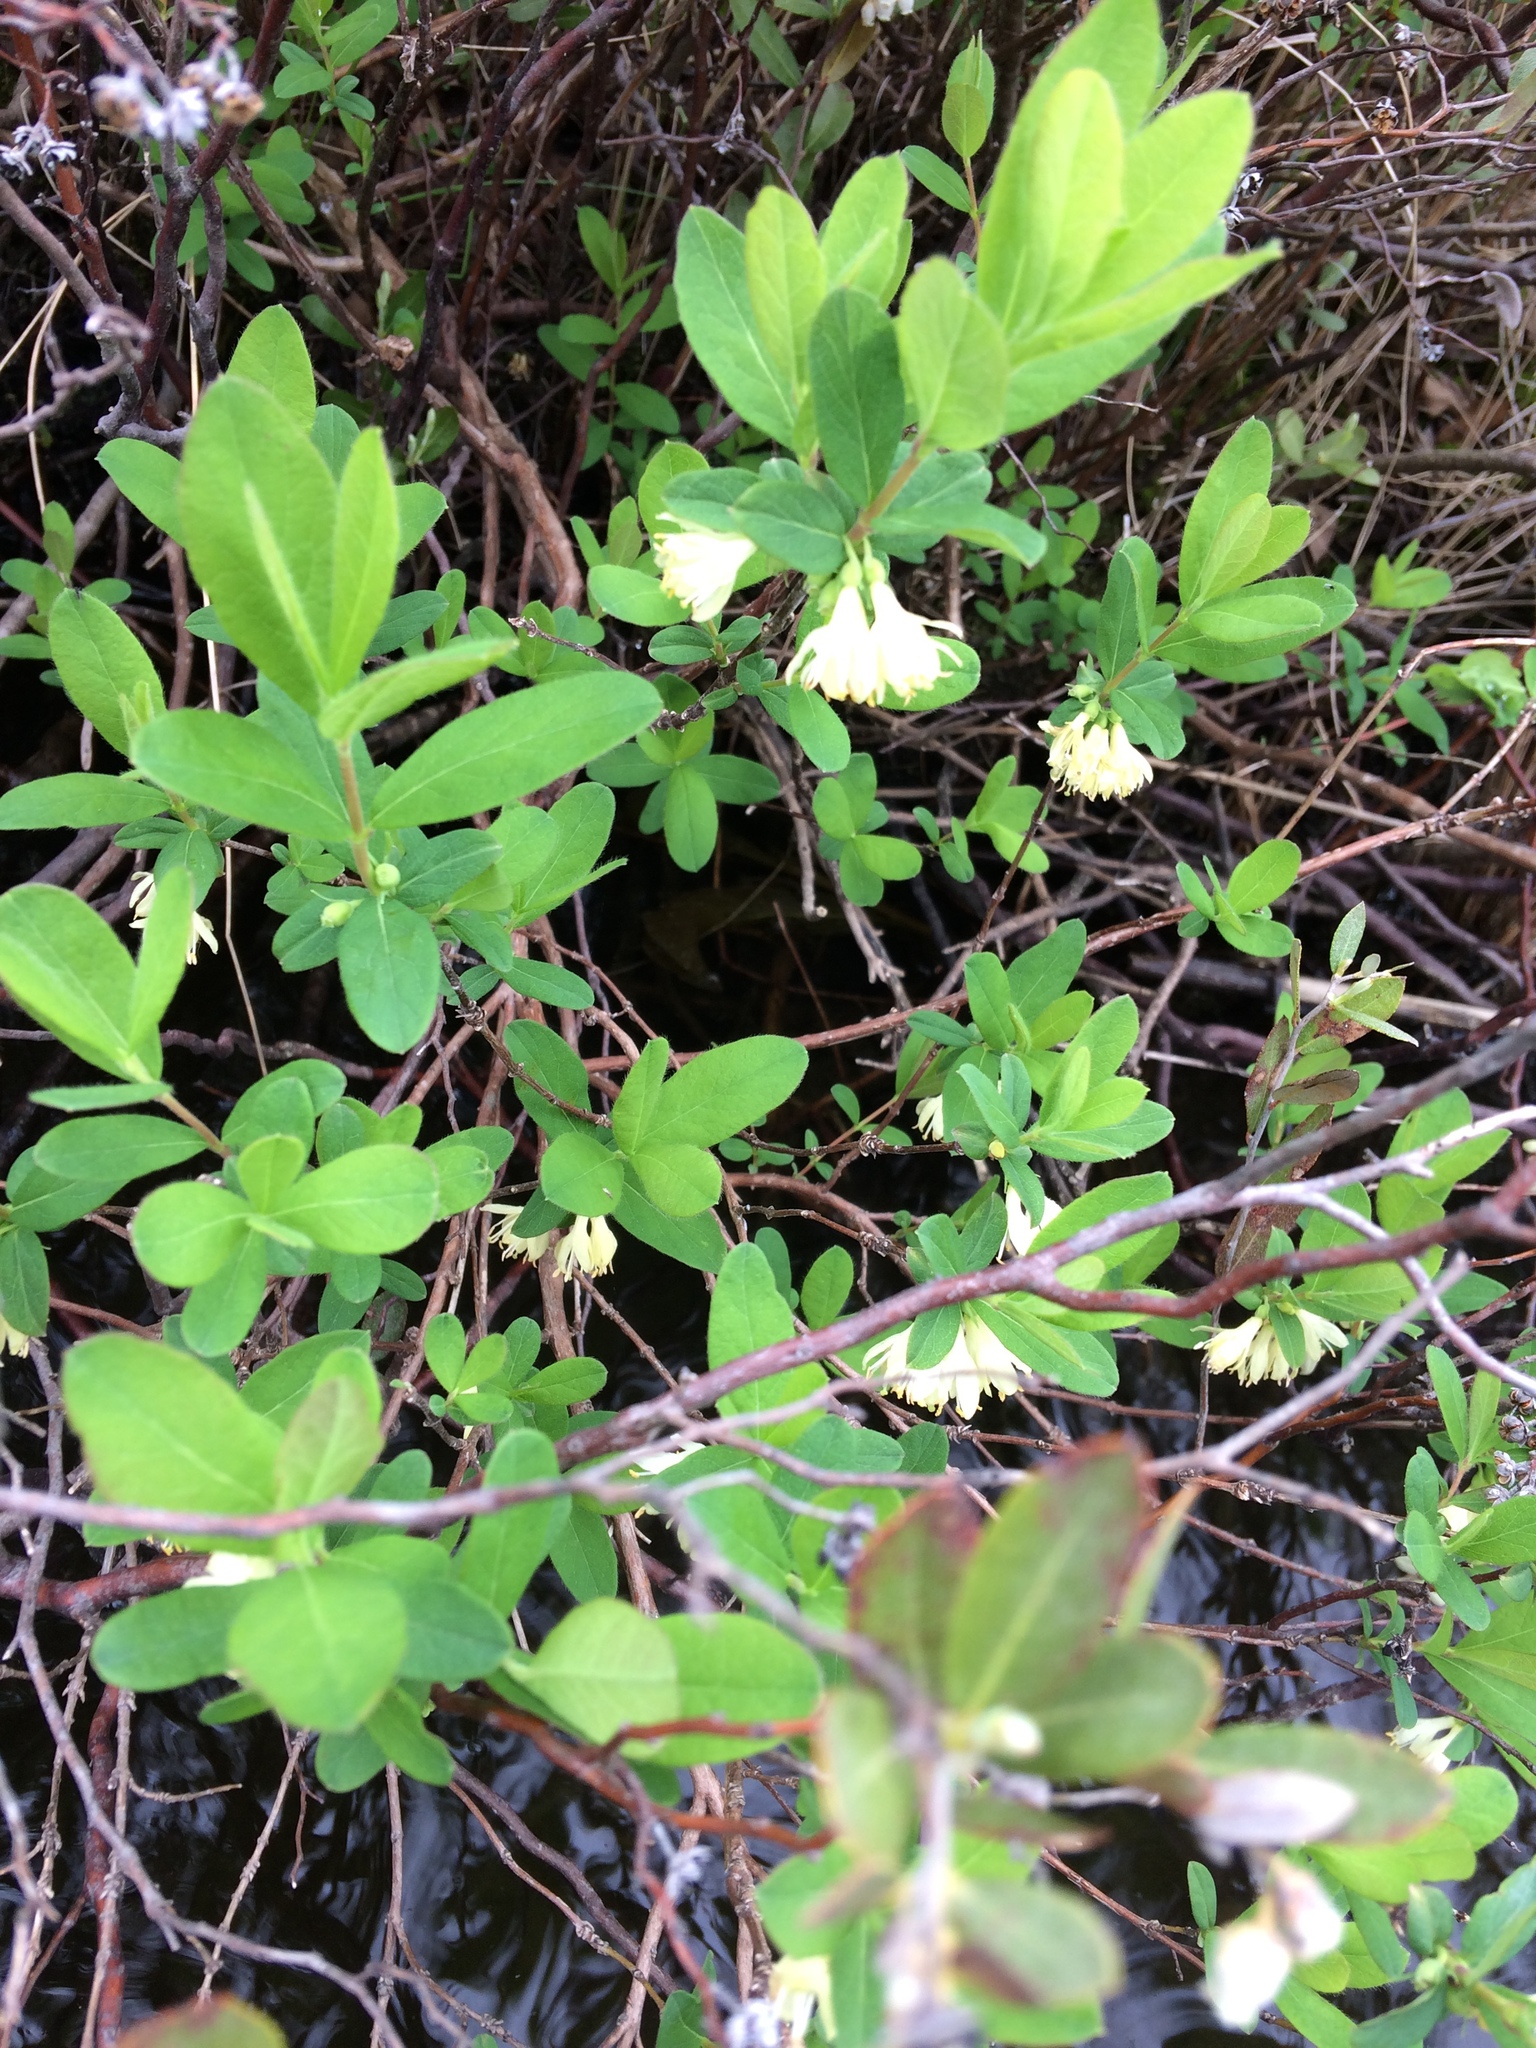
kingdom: Plantae
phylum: Tracheophyta
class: Magnoliopsida
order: Dipsacales
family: Caprifoliaceae
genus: Lonicera
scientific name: Lonicera villosa
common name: Mountain fly-honeysuckle
